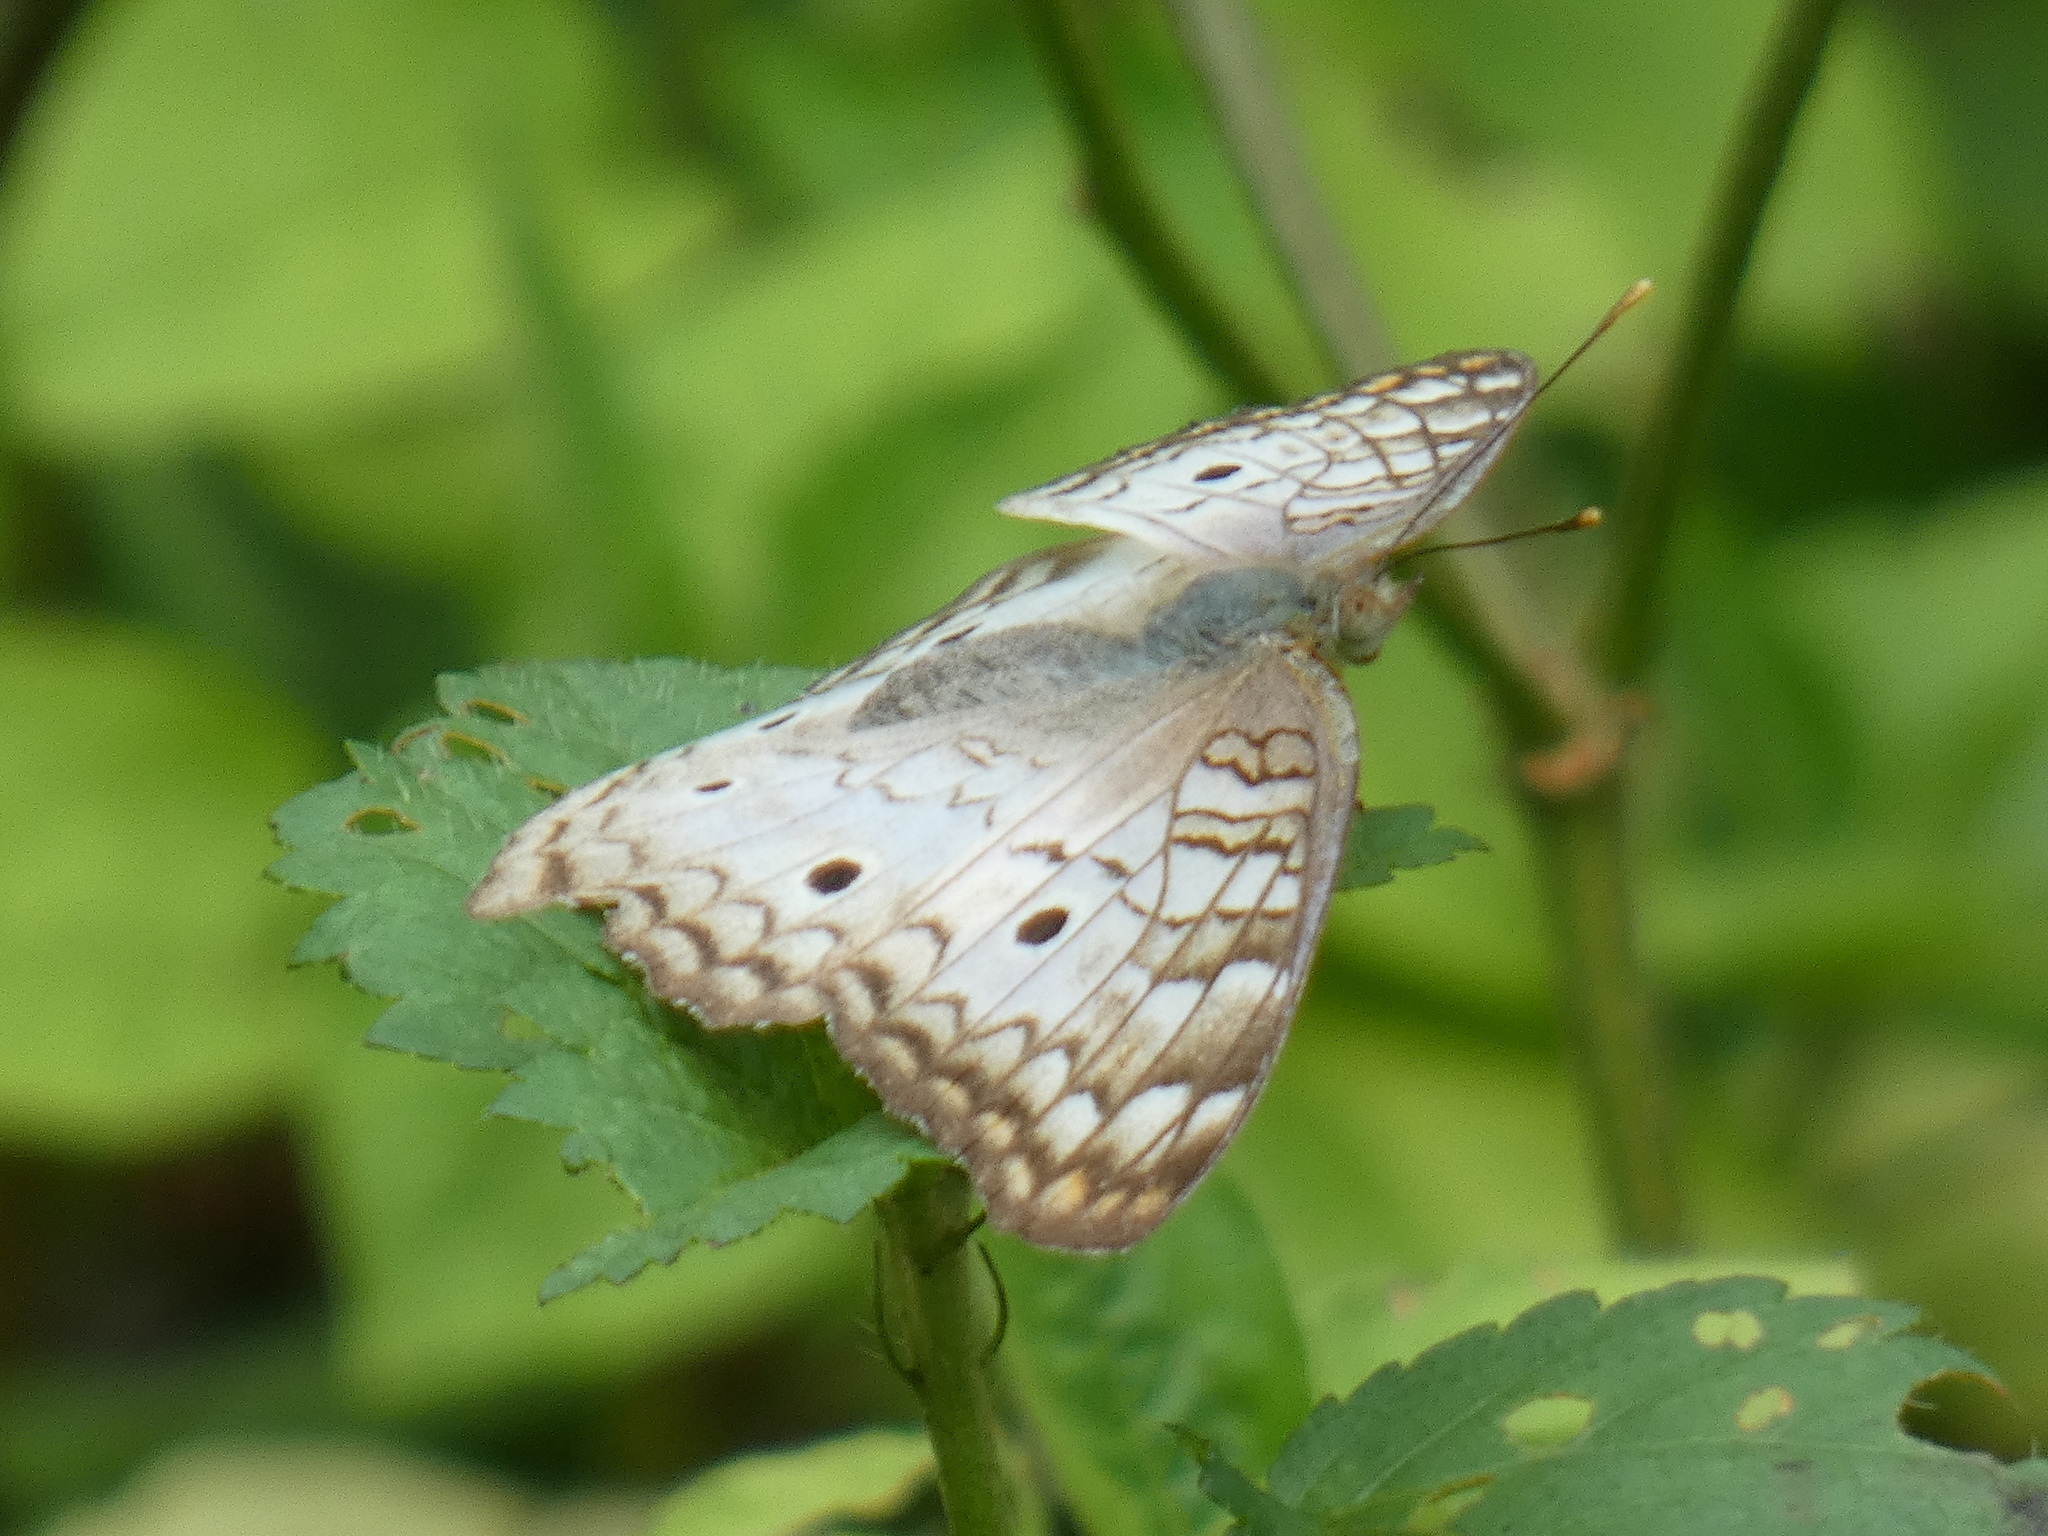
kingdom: Animalia
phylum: Arthropoda
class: Insecta
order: Lepidoptera
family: Nymphalidae
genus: Anartia
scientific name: Anartia jatrophae
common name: White peacock
